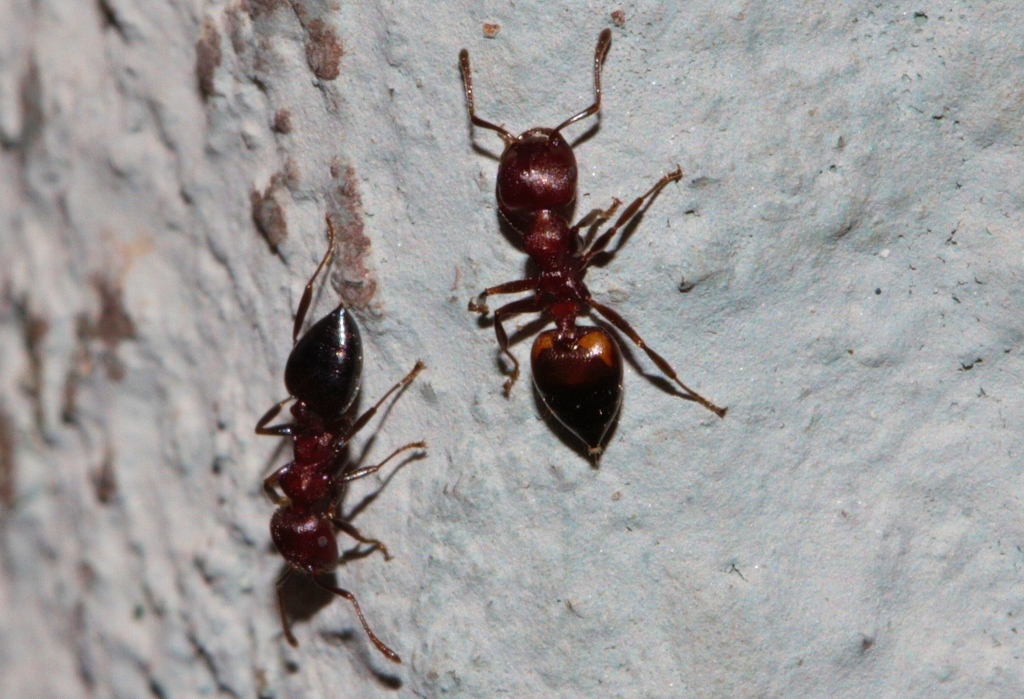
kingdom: Animalia
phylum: Arthropoda
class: Insecta
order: Hymenoptera
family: Formicidae
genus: Crematogaster
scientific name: Crematogaster castanea
